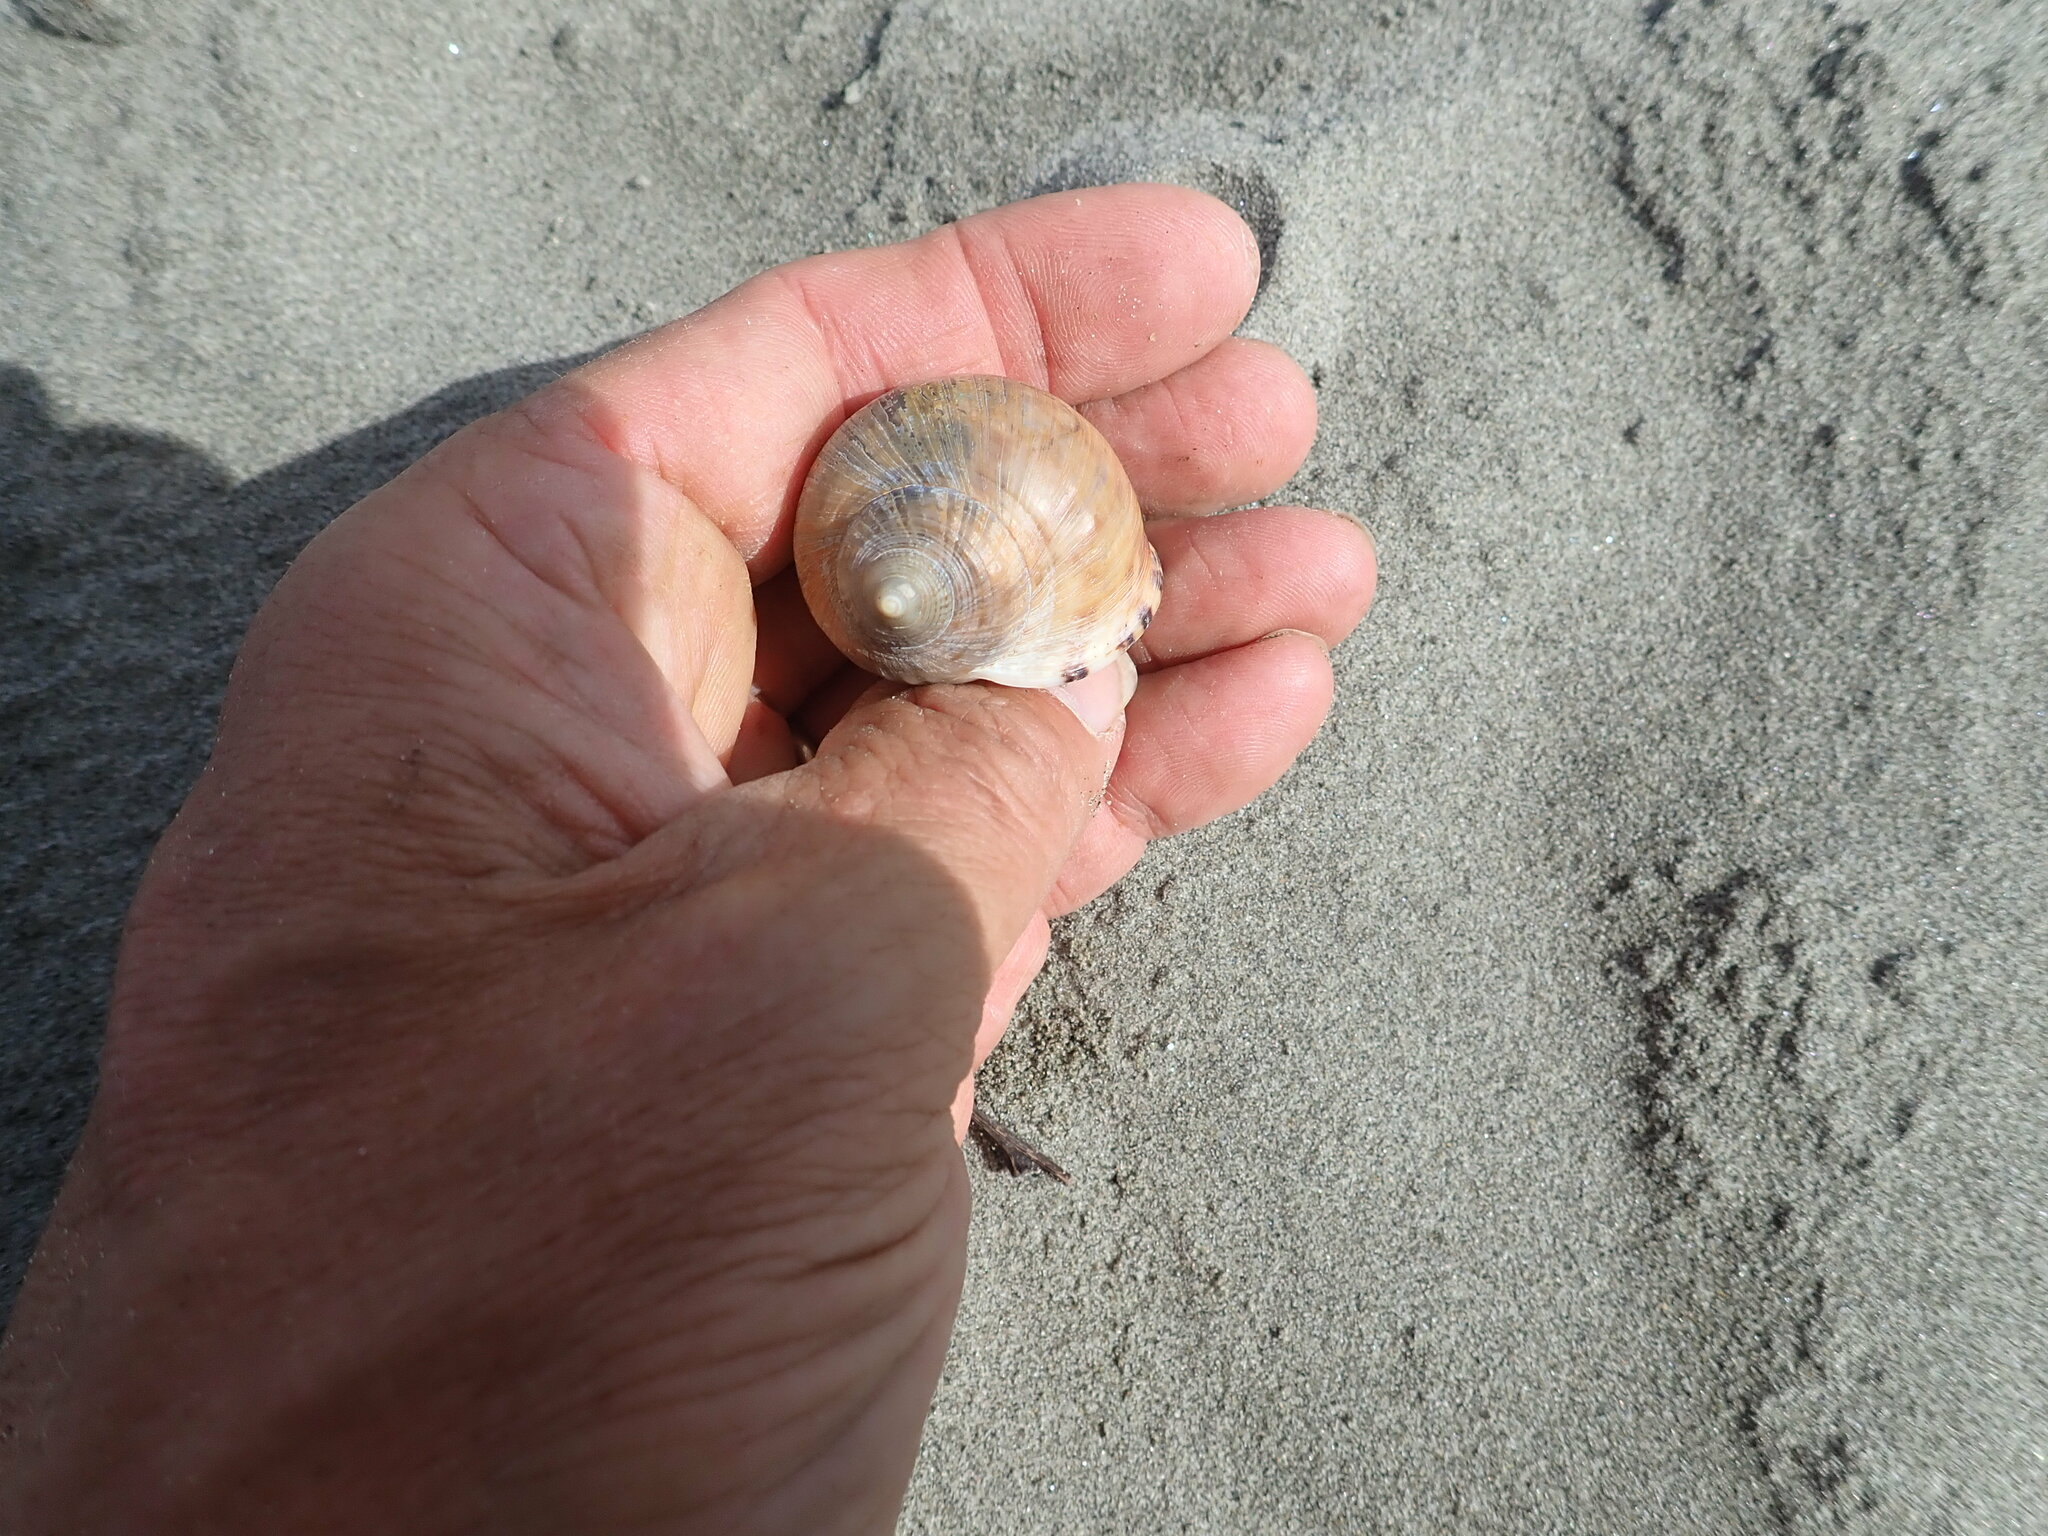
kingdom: Animalia
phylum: Mollusca
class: Gastropoda
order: Littorinimorpha
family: Cassidae
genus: Semicassis
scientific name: Semicassis pyrum
